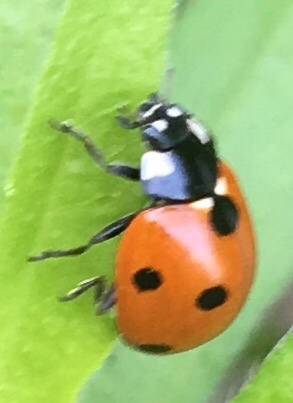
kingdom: Animalia
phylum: Arthropoda
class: Insecta
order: Coleoptera
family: Coccinellidae
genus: Coccinella
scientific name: Coccinella septempunctata
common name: Sevenspotted lady beetle
